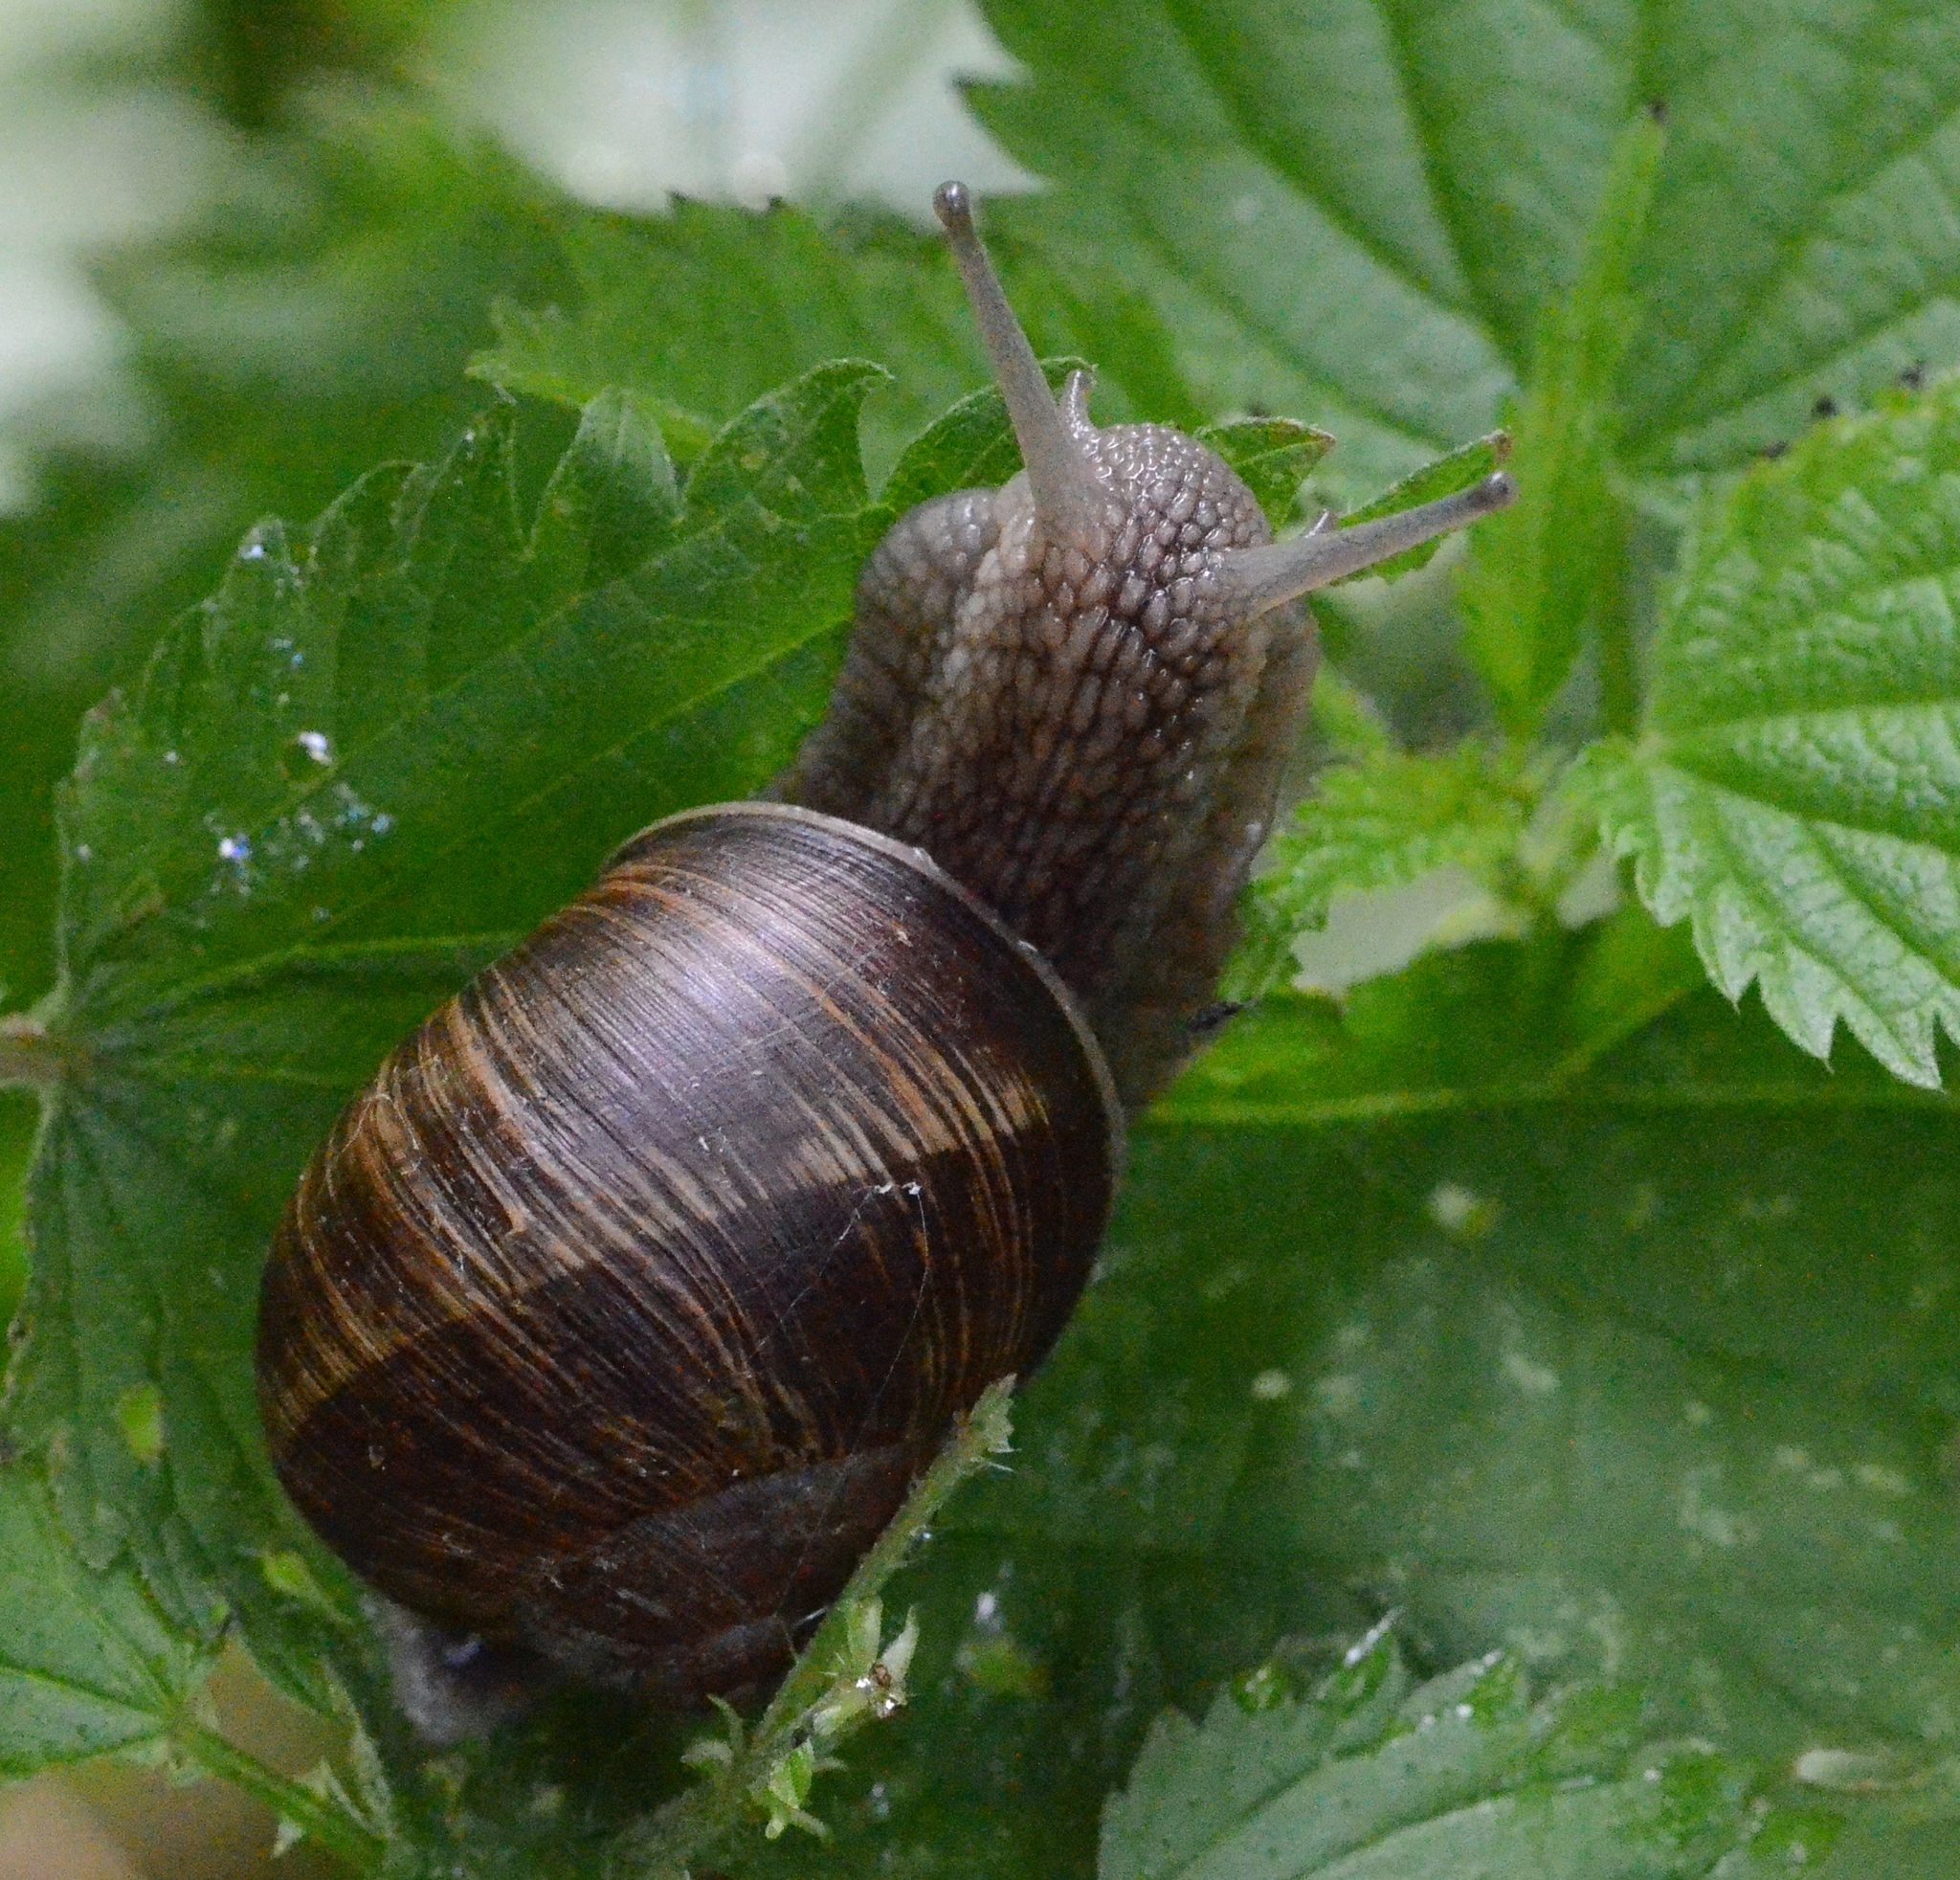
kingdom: Animalia
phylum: Mollusca
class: Gastropoda
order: Stylommatophora
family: Helicidae
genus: Helix
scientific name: Helix pomatia
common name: Roman snail
